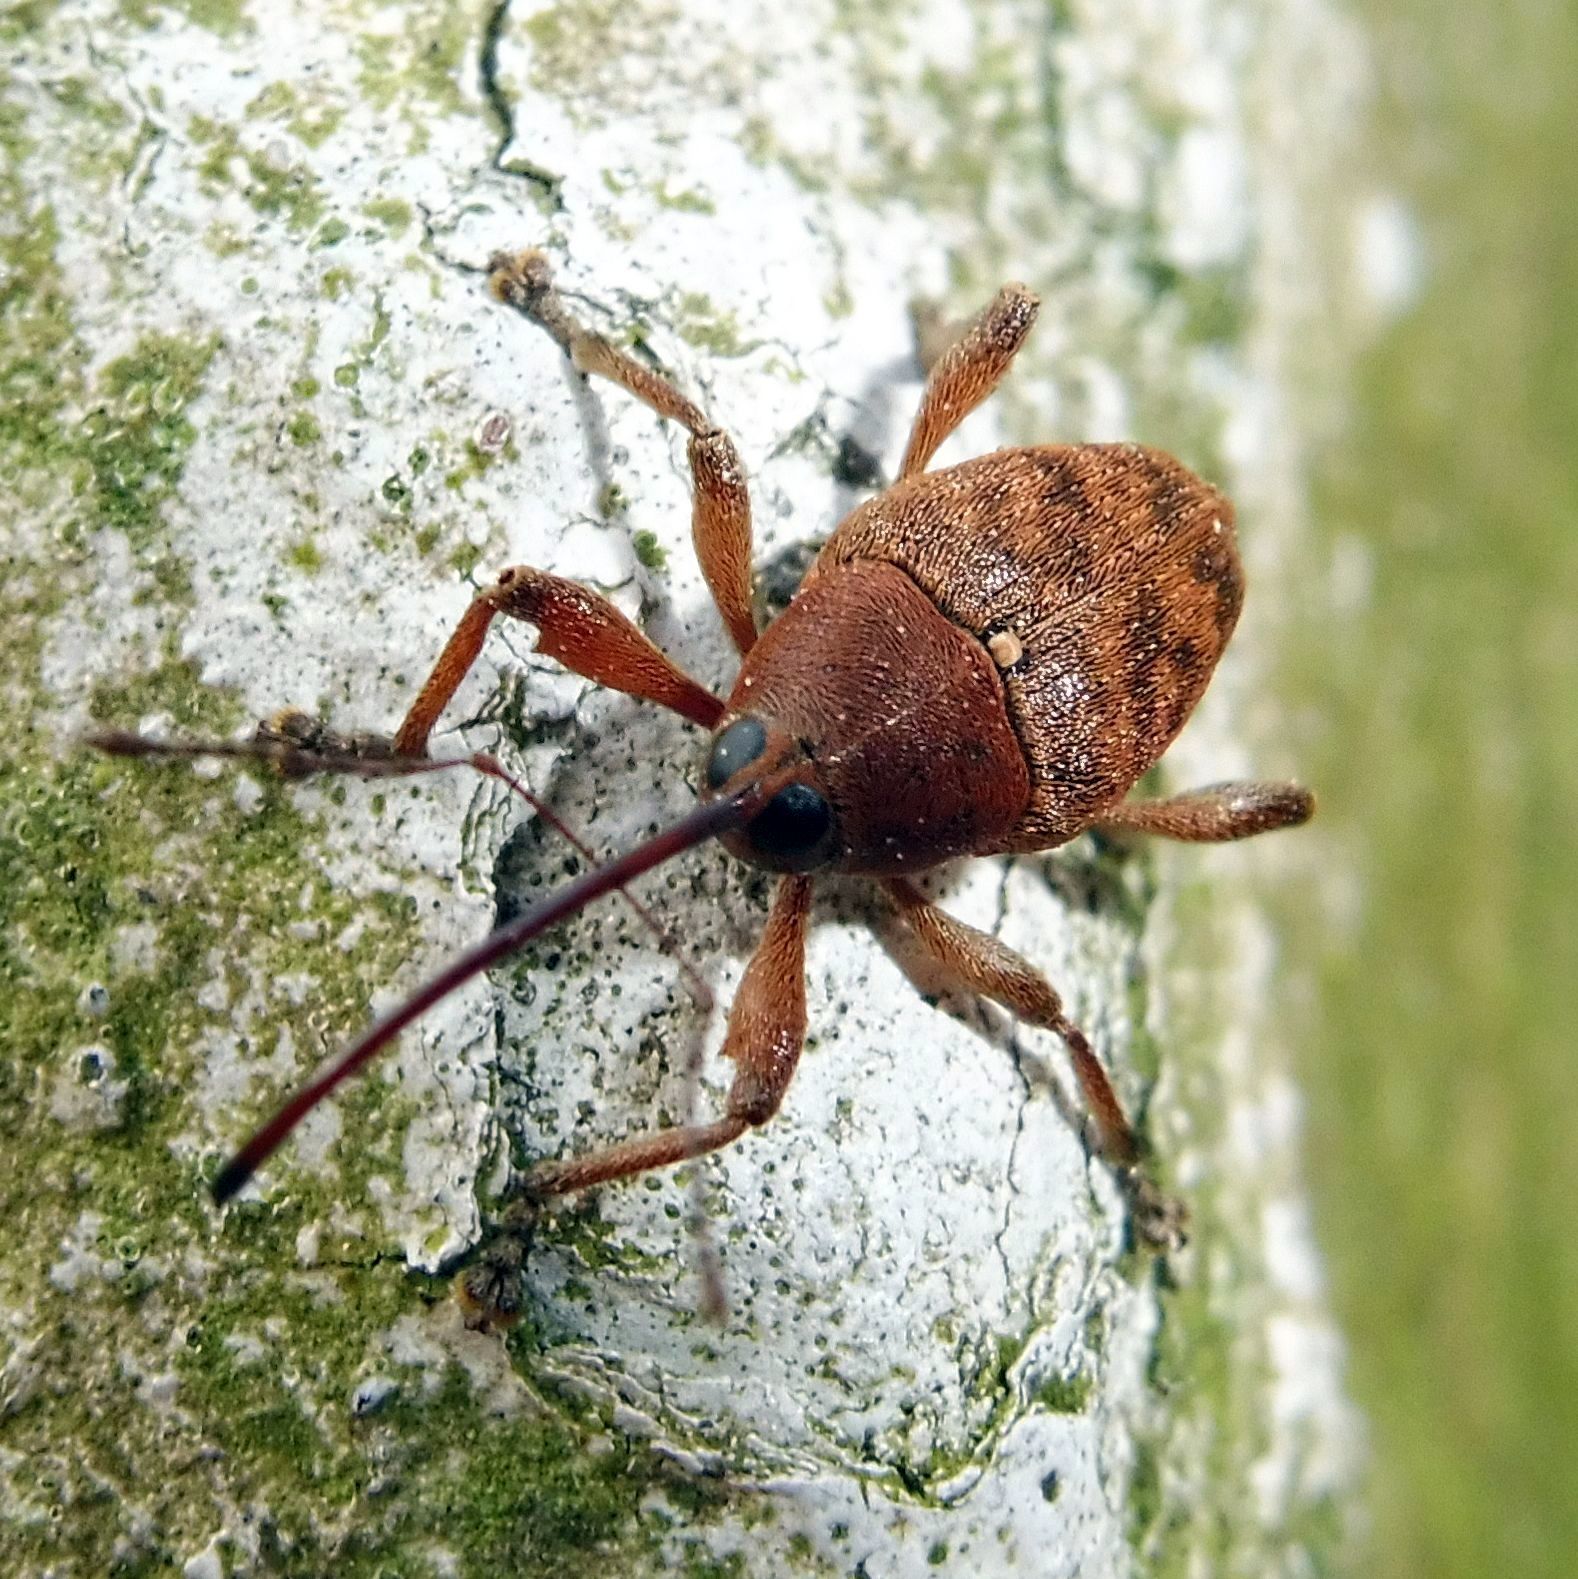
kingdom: Animalia
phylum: Arthropoda
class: Insecta
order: Coleoptera
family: Curculionidae
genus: Curculio
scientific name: Curculio glandium
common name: Acorn weevil
